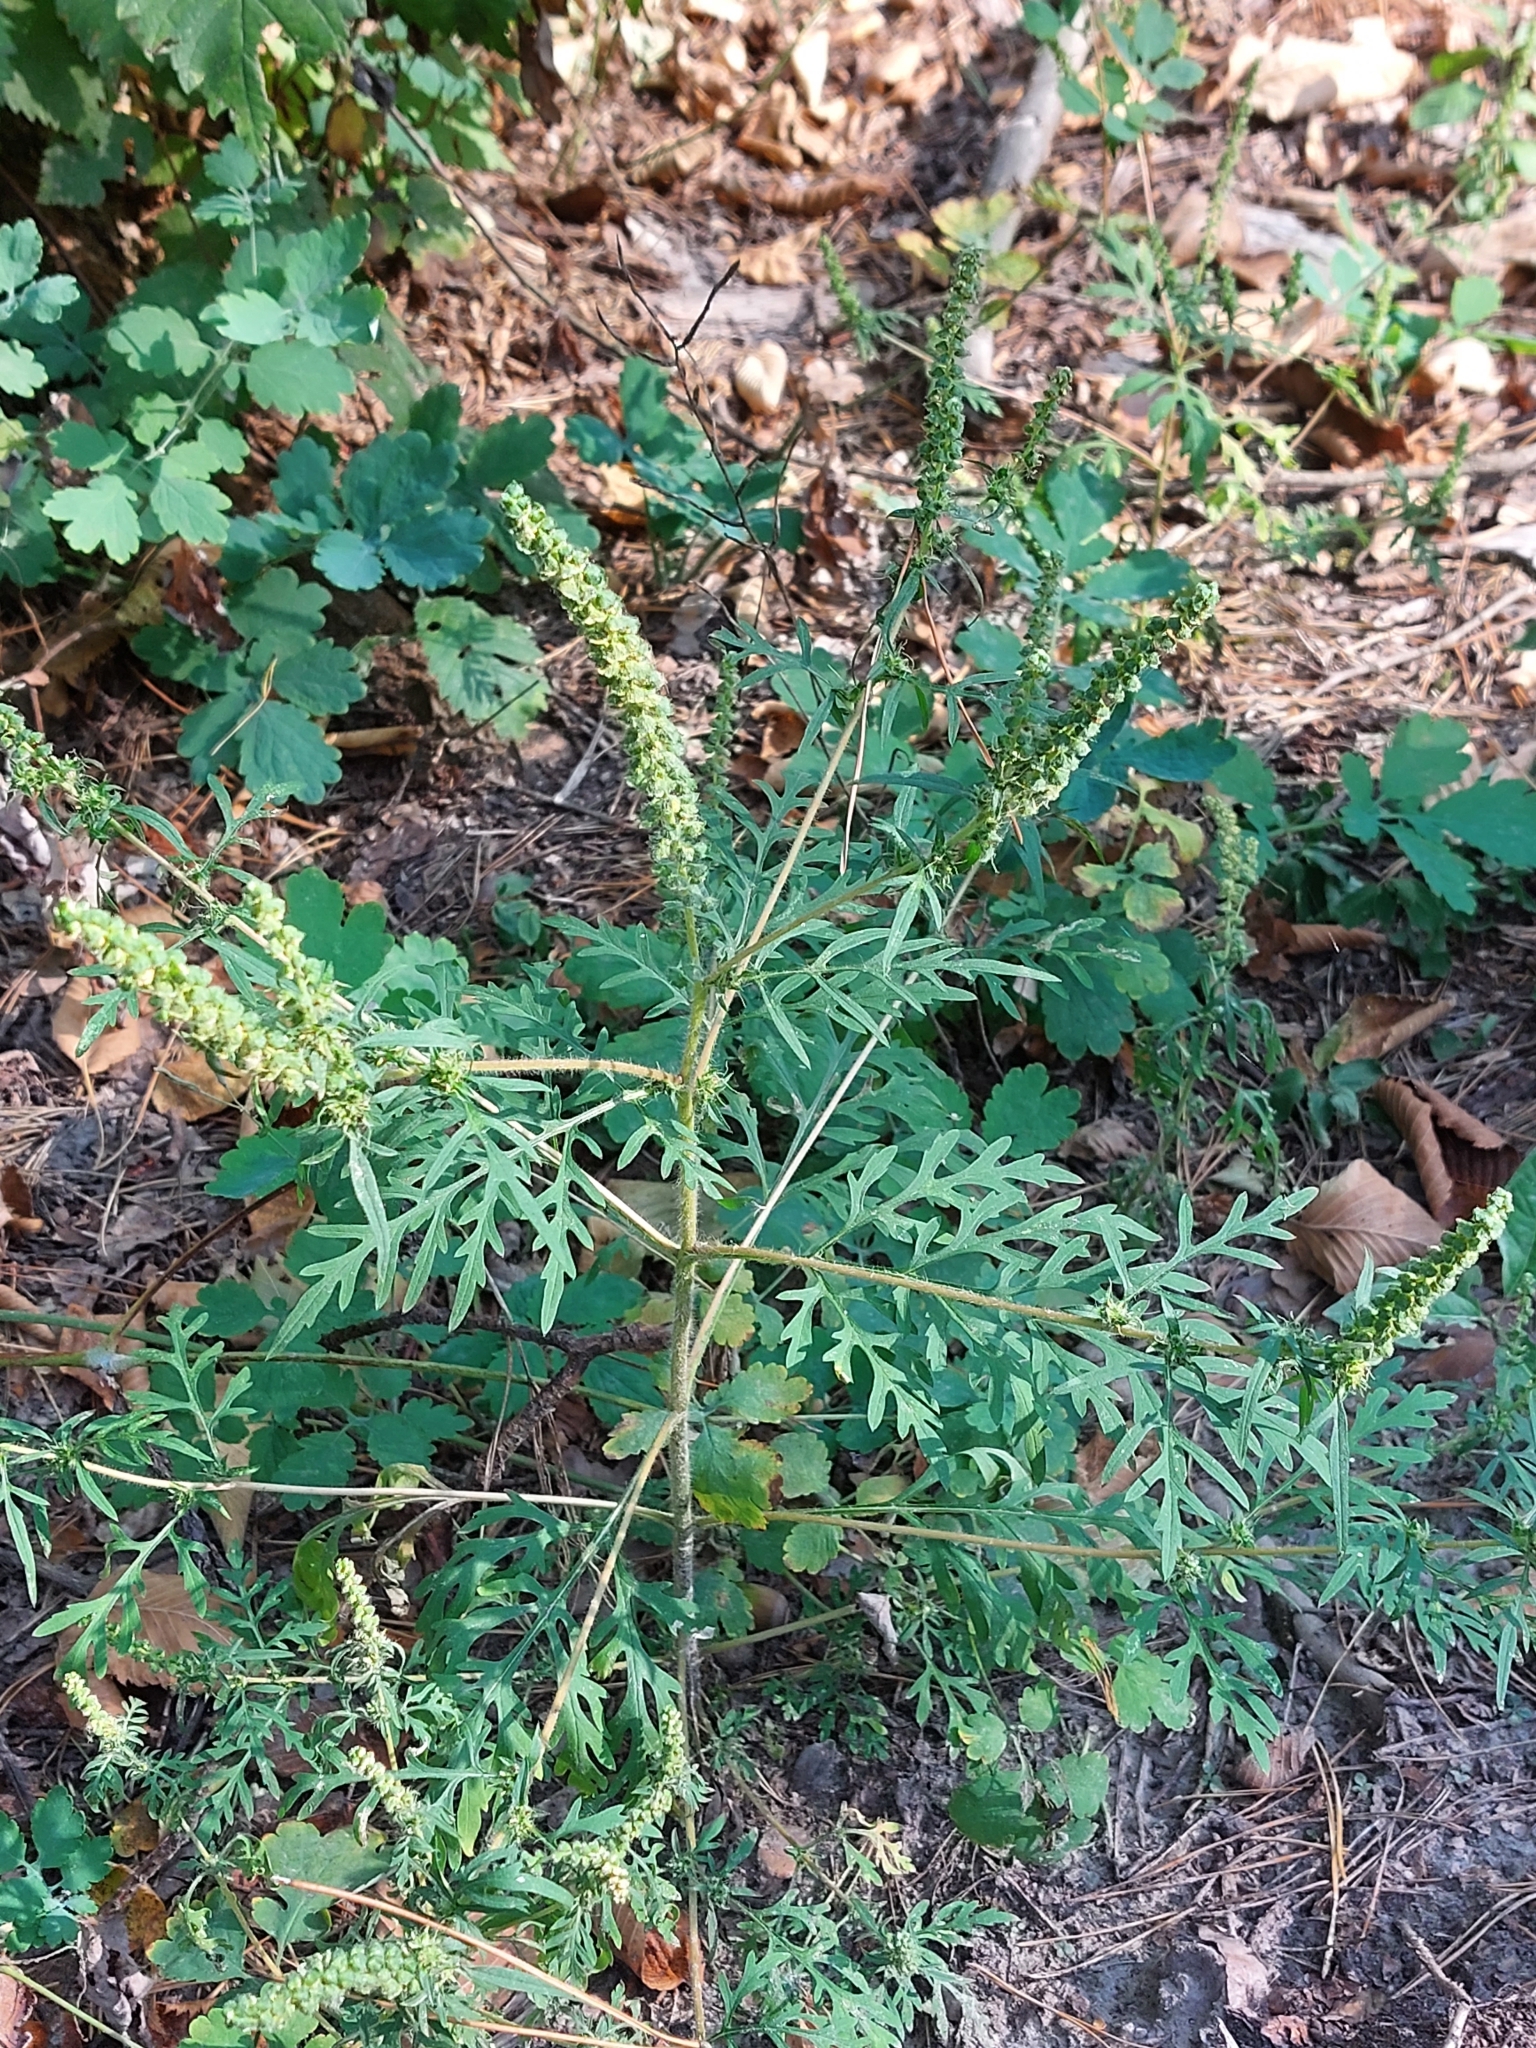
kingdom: Plantae
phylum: Tracheophyta
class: Magnoliopsida
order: Asterales
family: Asteraceae
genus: Ambrosia
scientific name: Ambrosia artemisiifolia
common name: Annual ragweed
